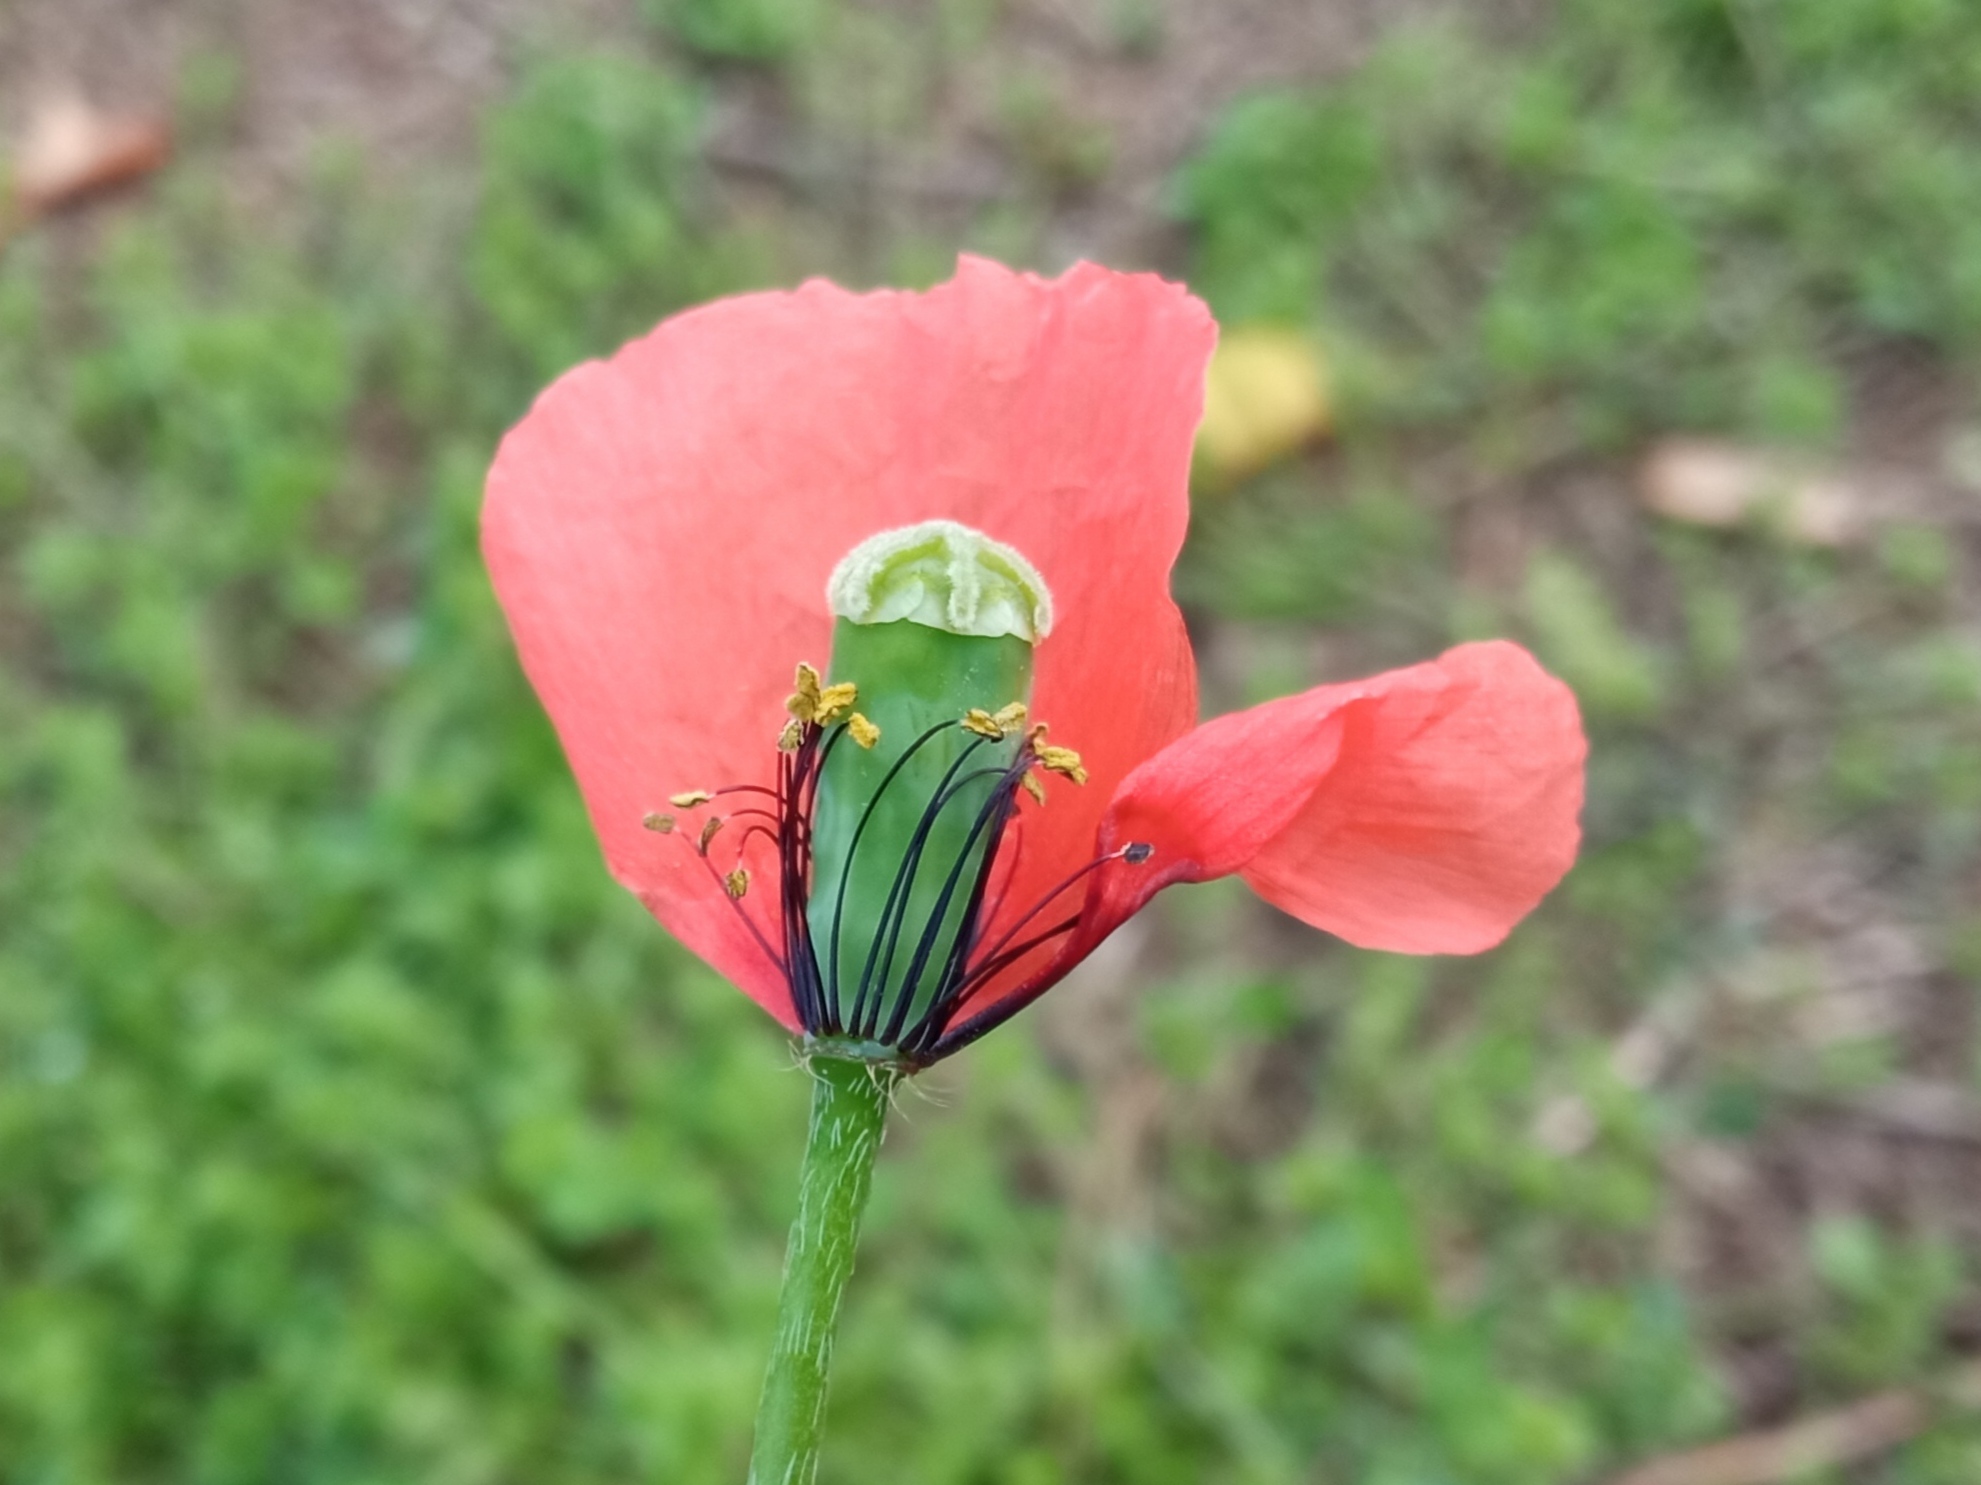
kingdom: Plantae
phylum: Tracheophyta
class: Magnoliopsida
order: Ranunculales
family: Papaveraceae
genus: Papaver
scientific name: Papaver dubium
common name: Long-headed poppy
